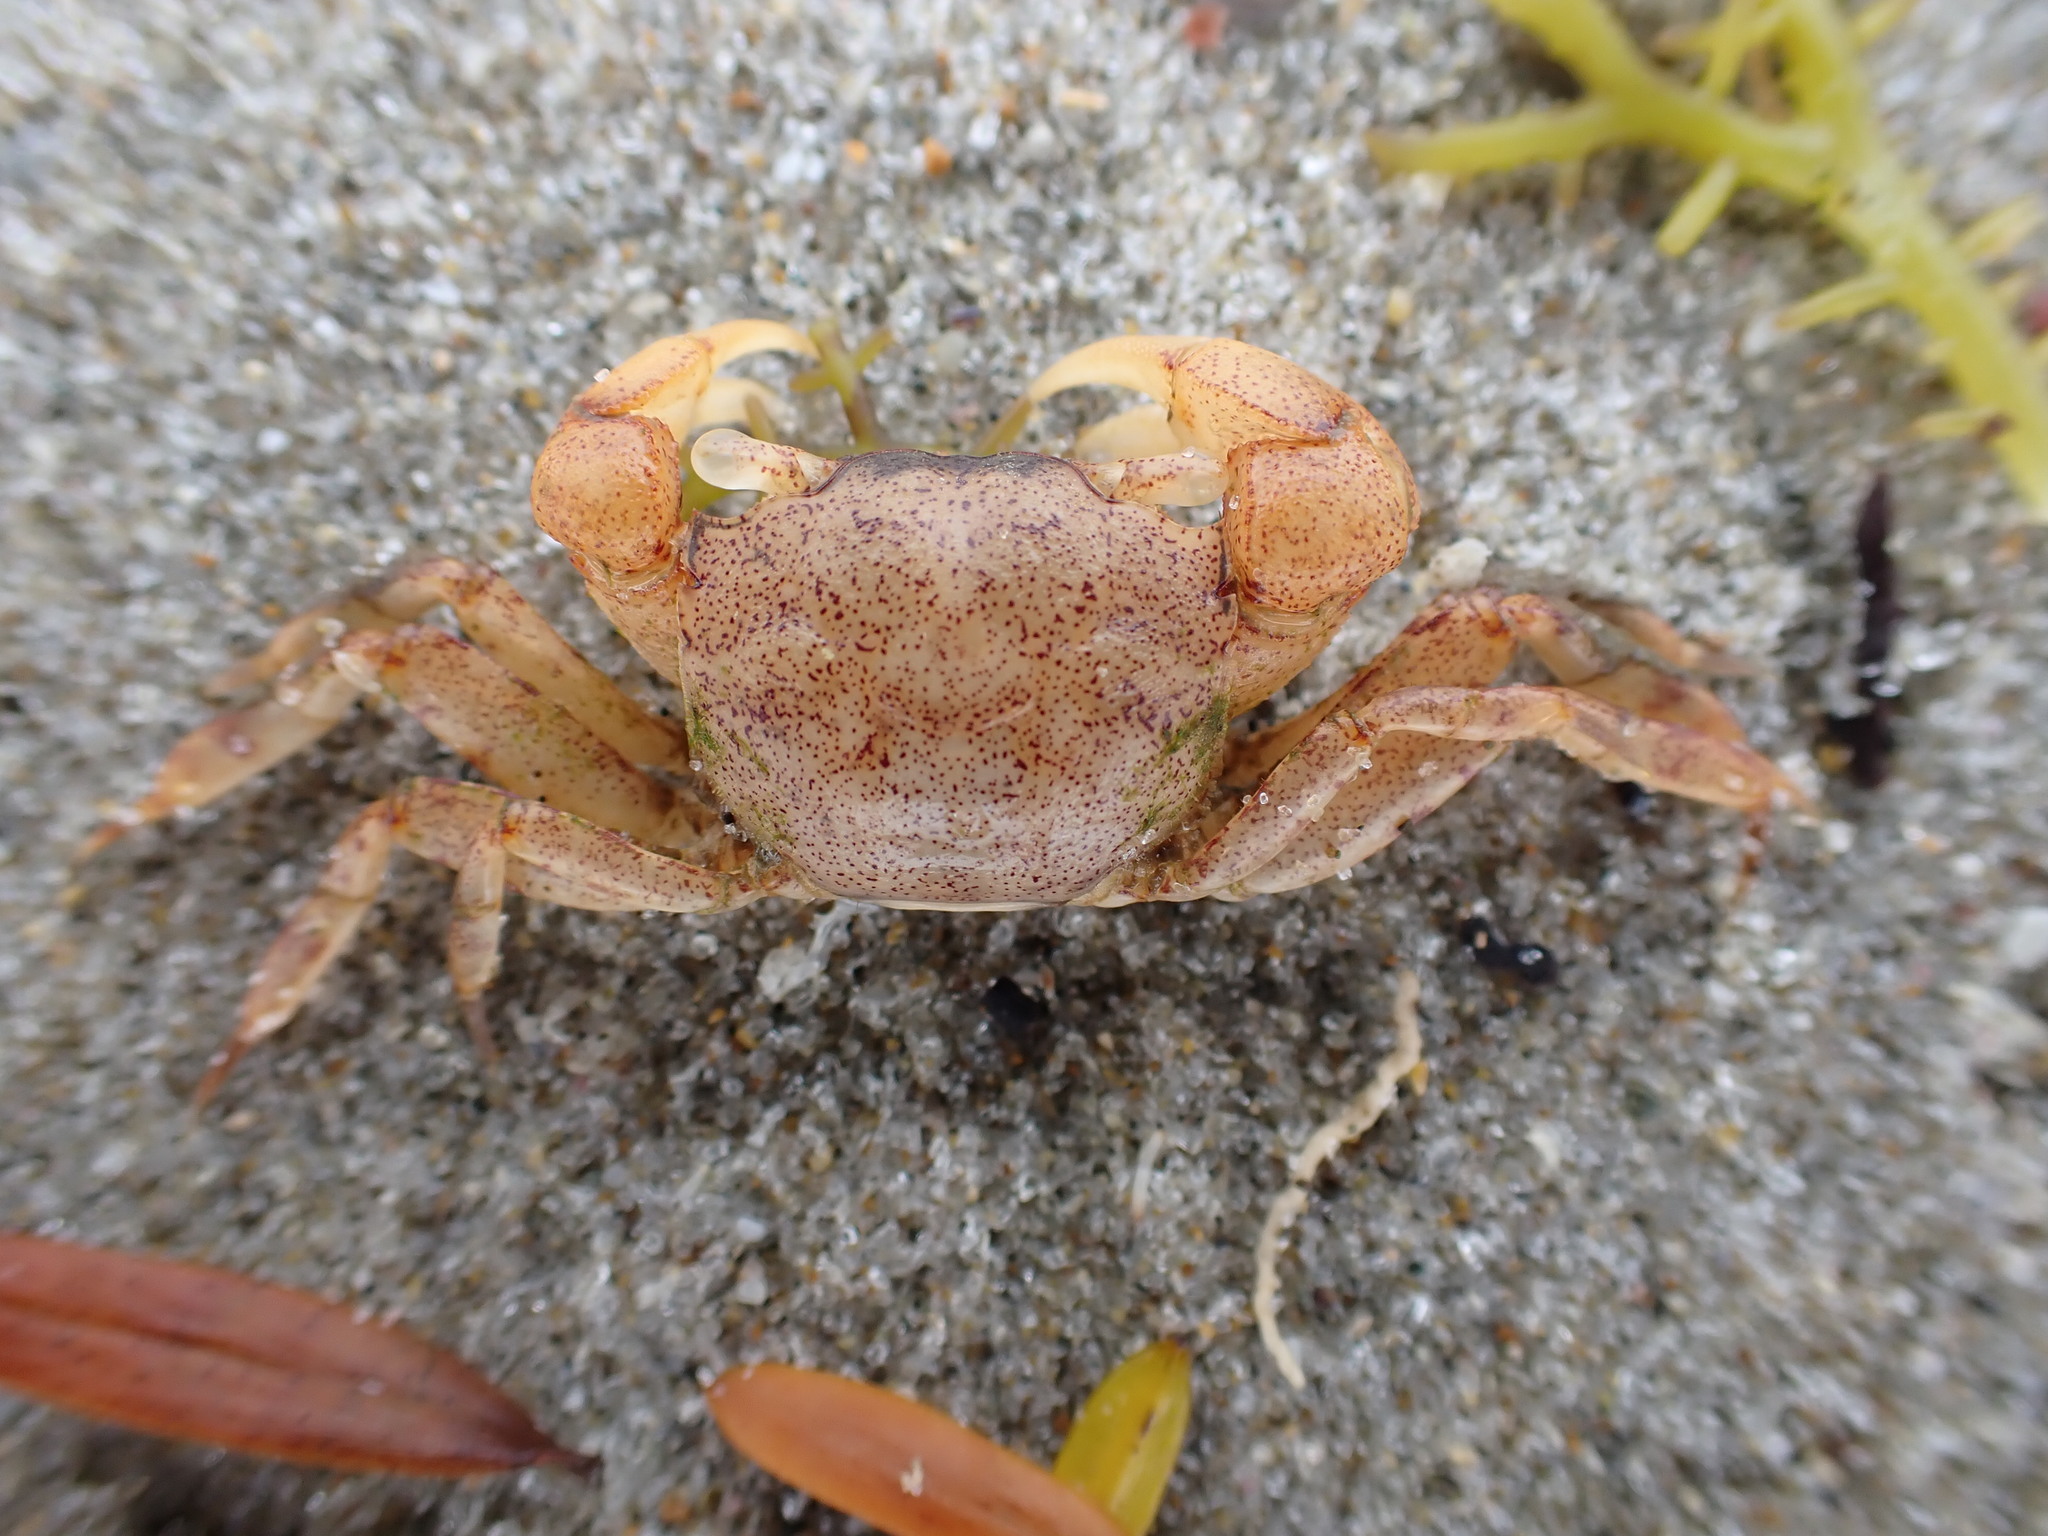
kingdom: Animalia
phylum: Arthropoda
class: Malacostraca
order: Decapoda
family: Varunidae
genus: Austrohelice
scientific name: Austrohelice crassa
